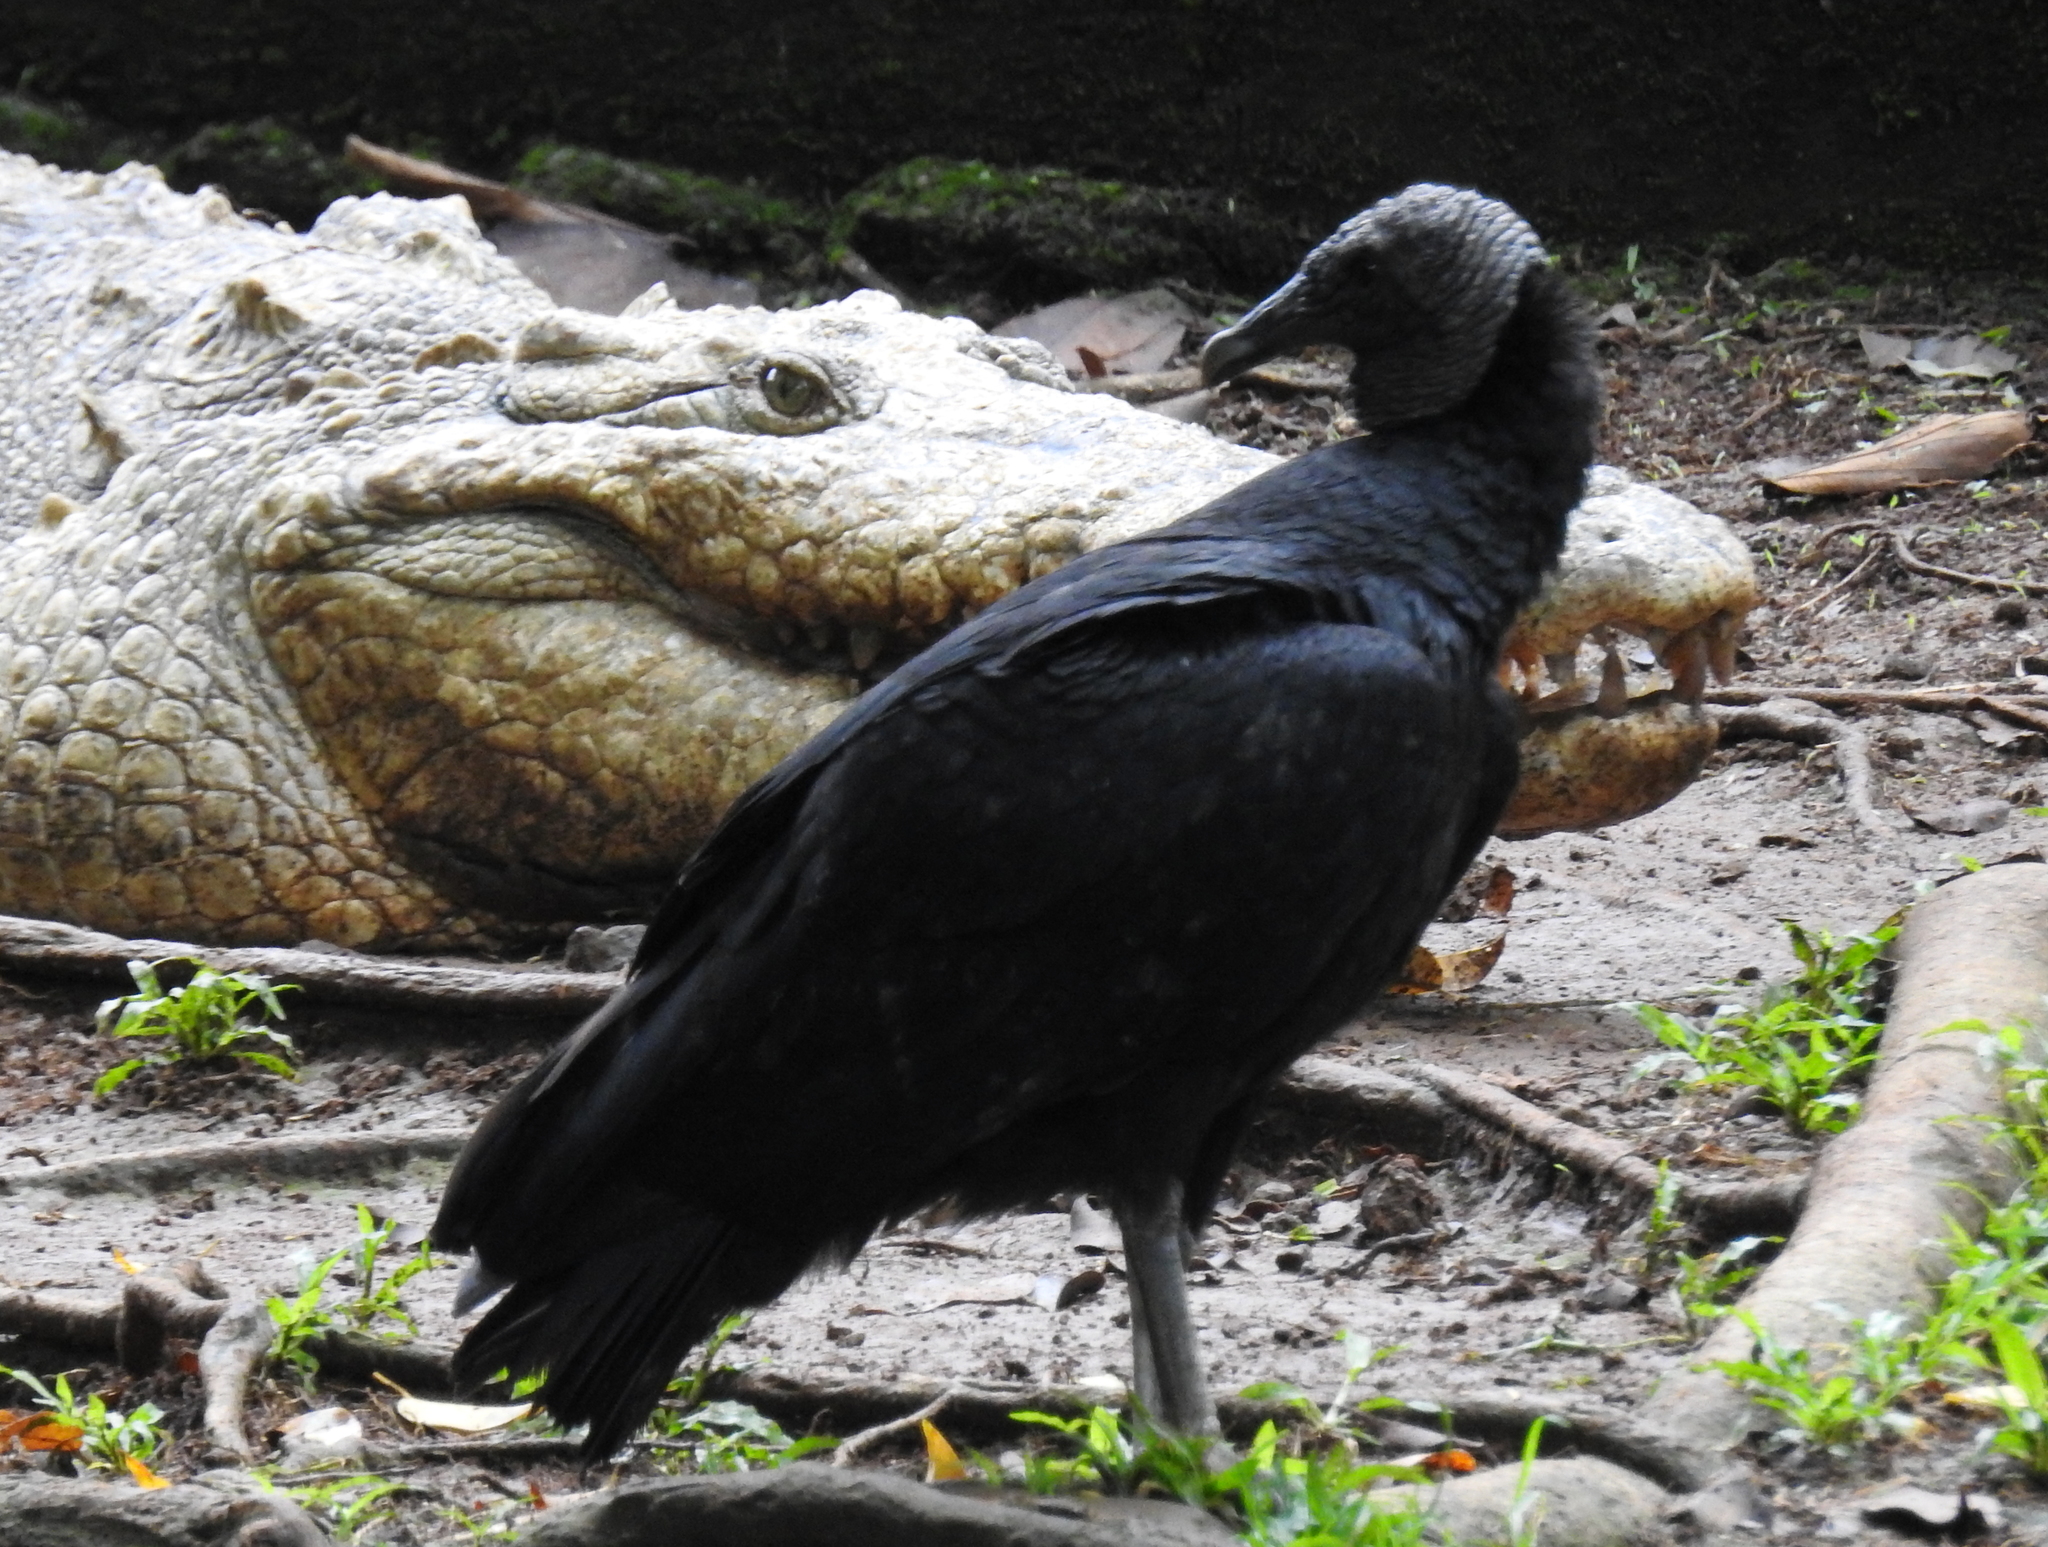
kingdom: Animalia
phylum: Chordata
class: Aves
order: Accipitriformes
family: Cathartidae
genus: Coragyps
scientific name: Coragyps atratus
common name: Black vulture
